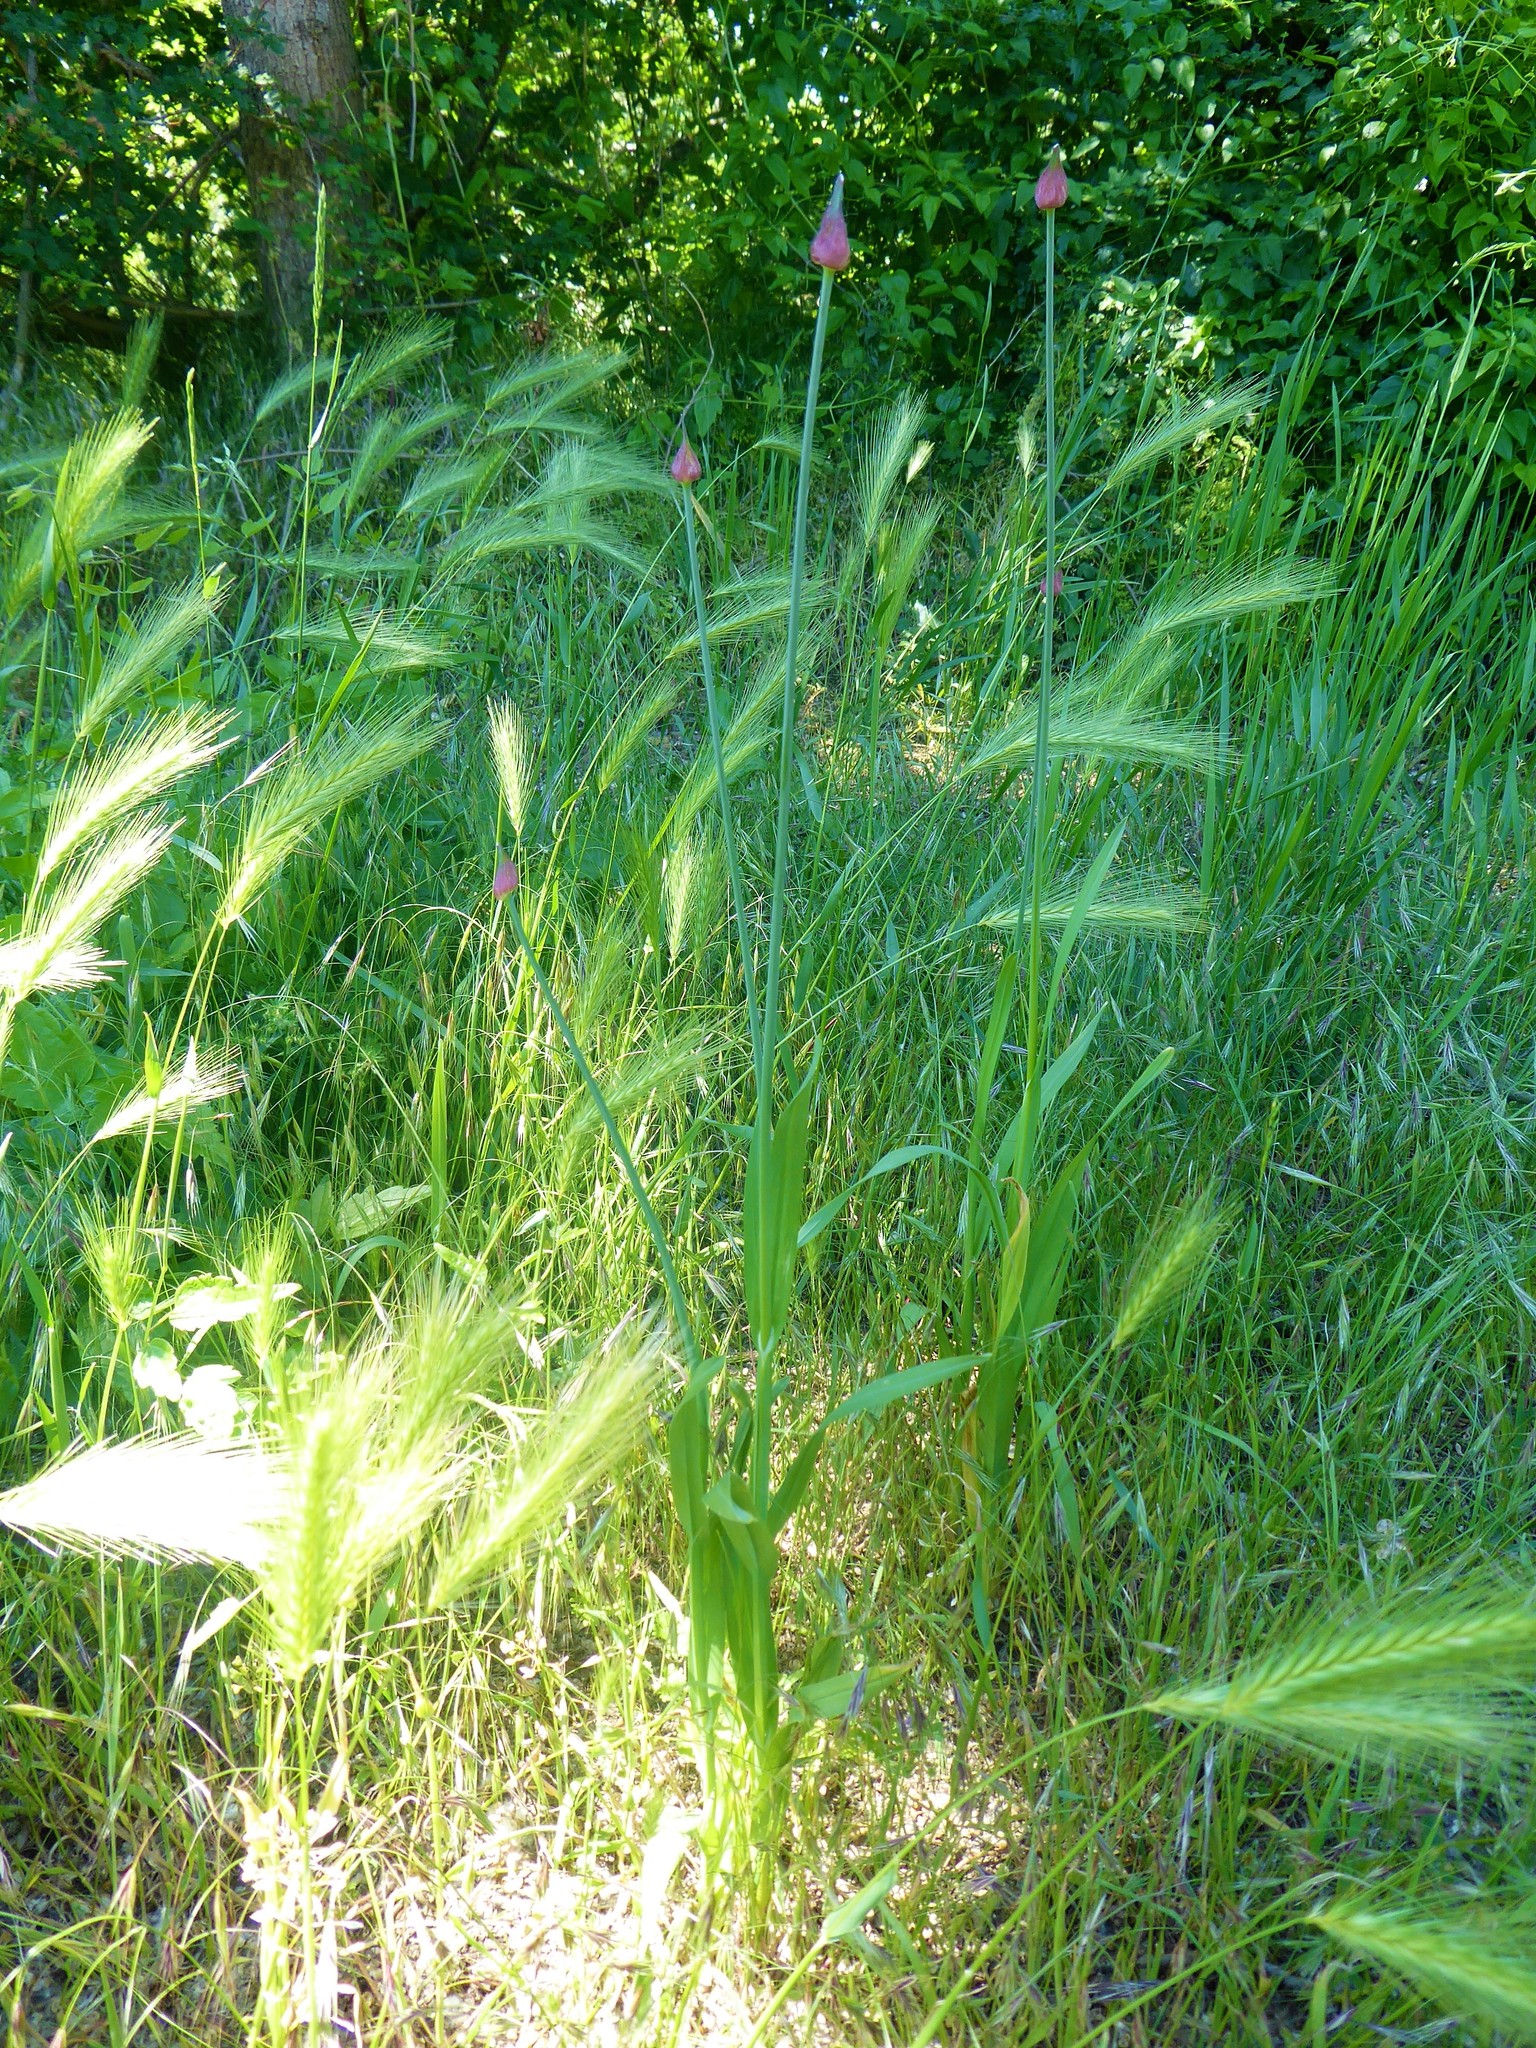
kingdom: Plantae
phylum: Tracheophyta
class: Liliopsida
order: Asparagales
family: Amaryllidaceae
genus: Allium
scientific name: Allium scorodoprasum
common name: Sand leek
